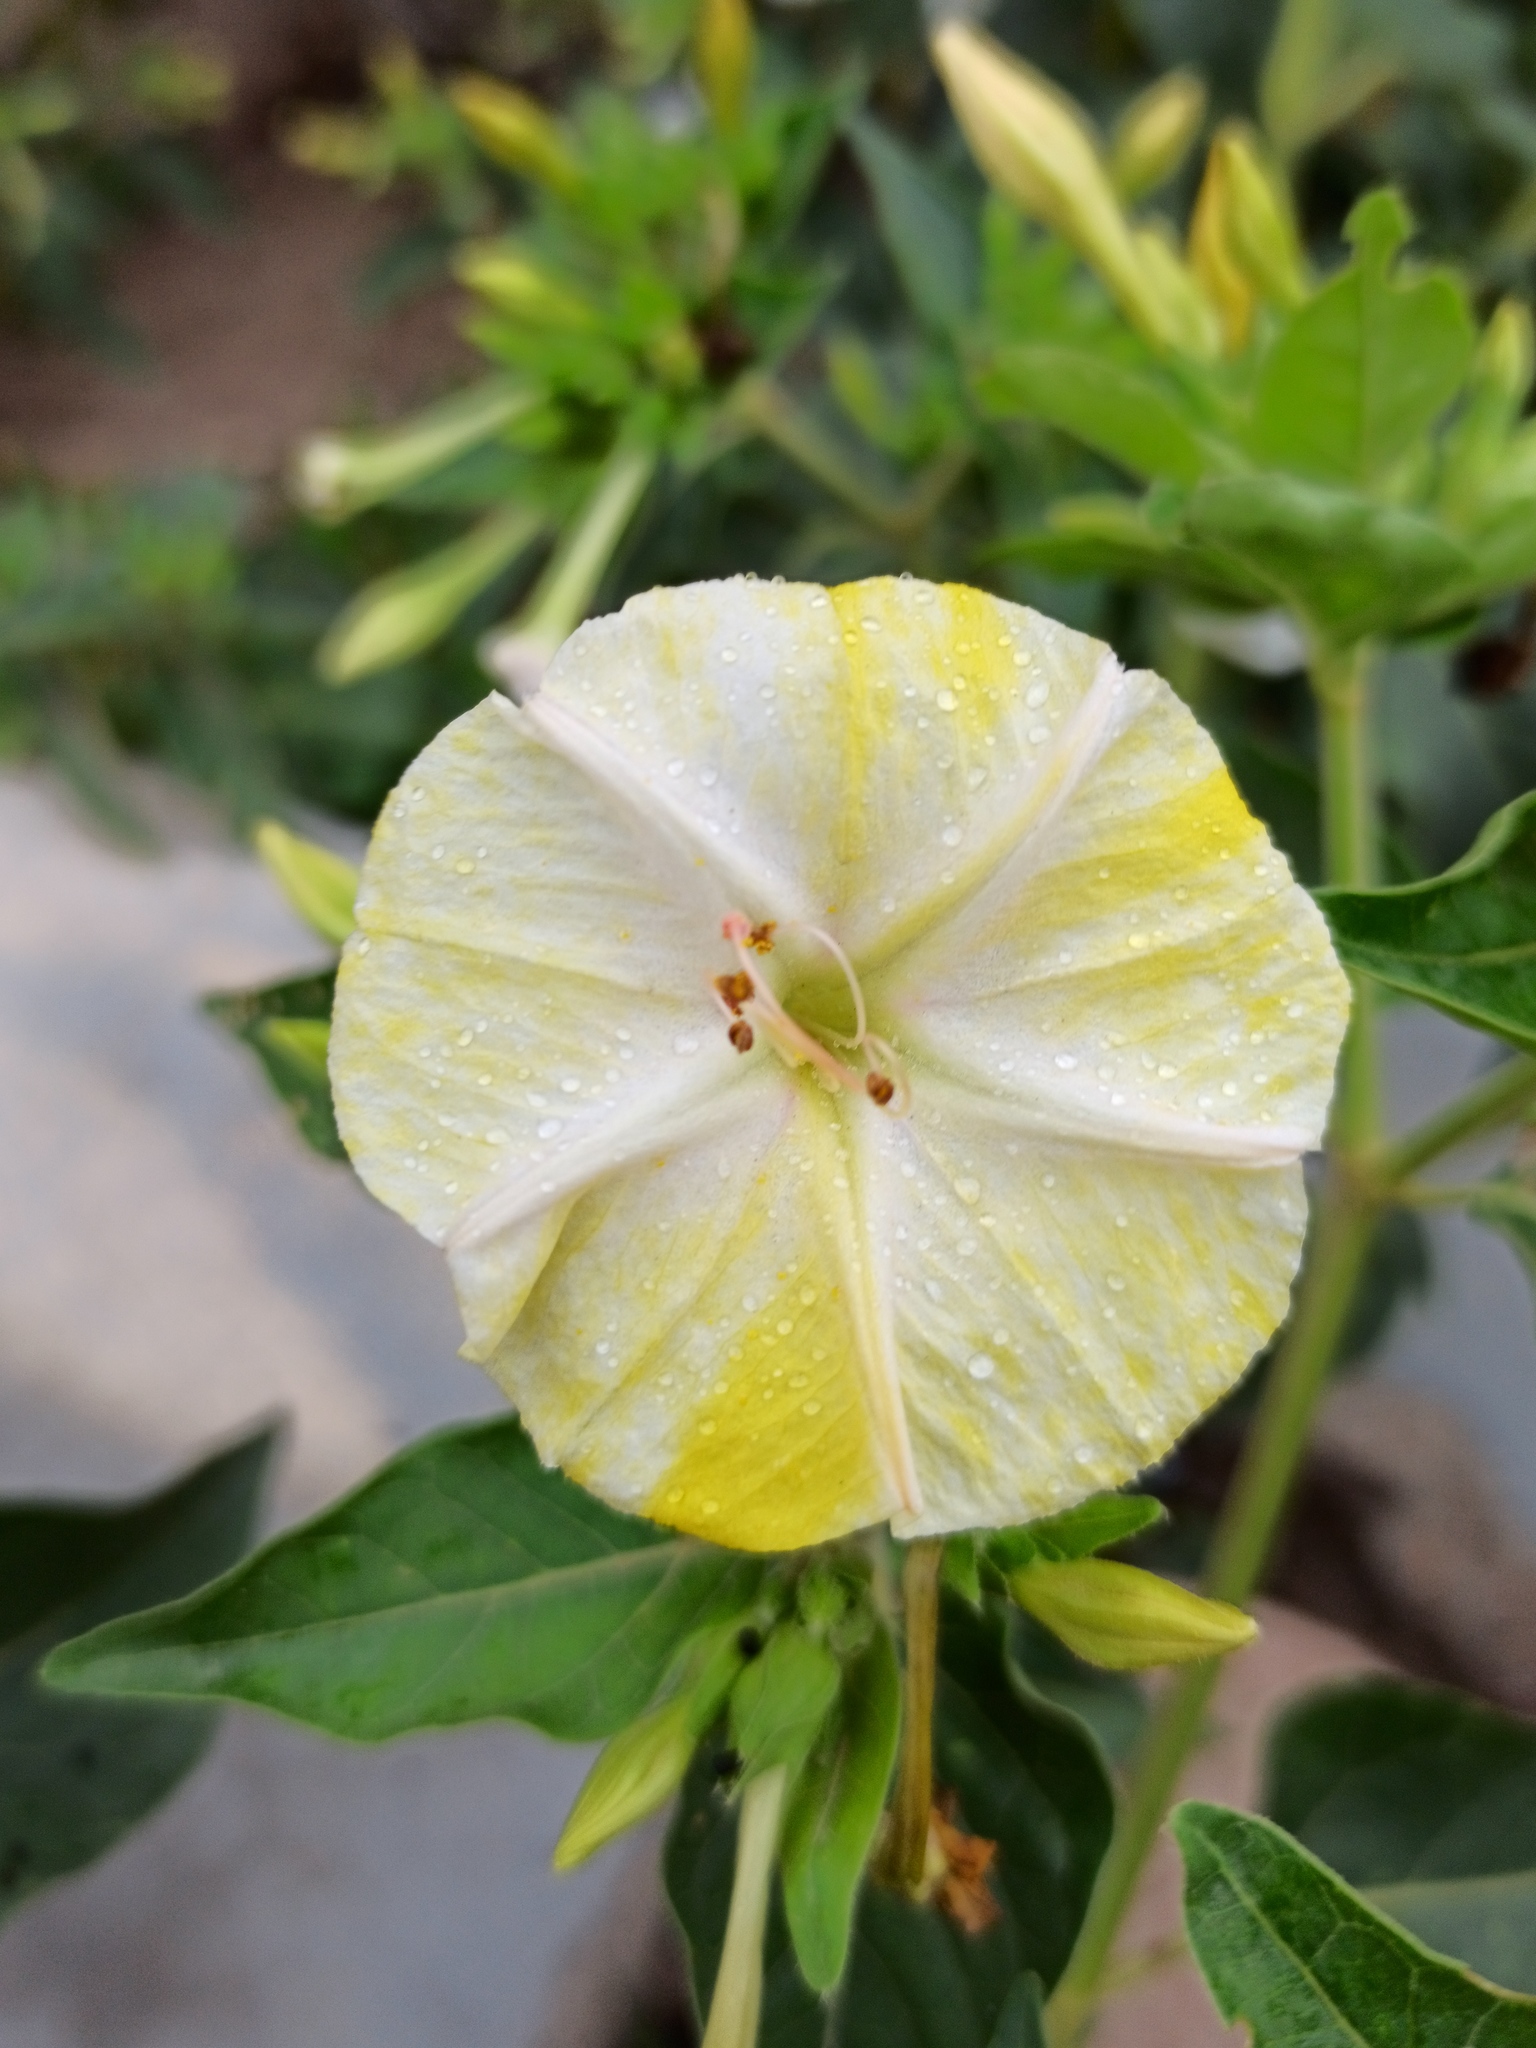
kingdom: Plantae
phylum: Tracheophyta
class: Magnoliopsida
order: Caryophyllales
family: Nyctaginaceae
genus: Mirabilis
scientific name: Mirabilis jalapa
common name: Marvel-of-peru
